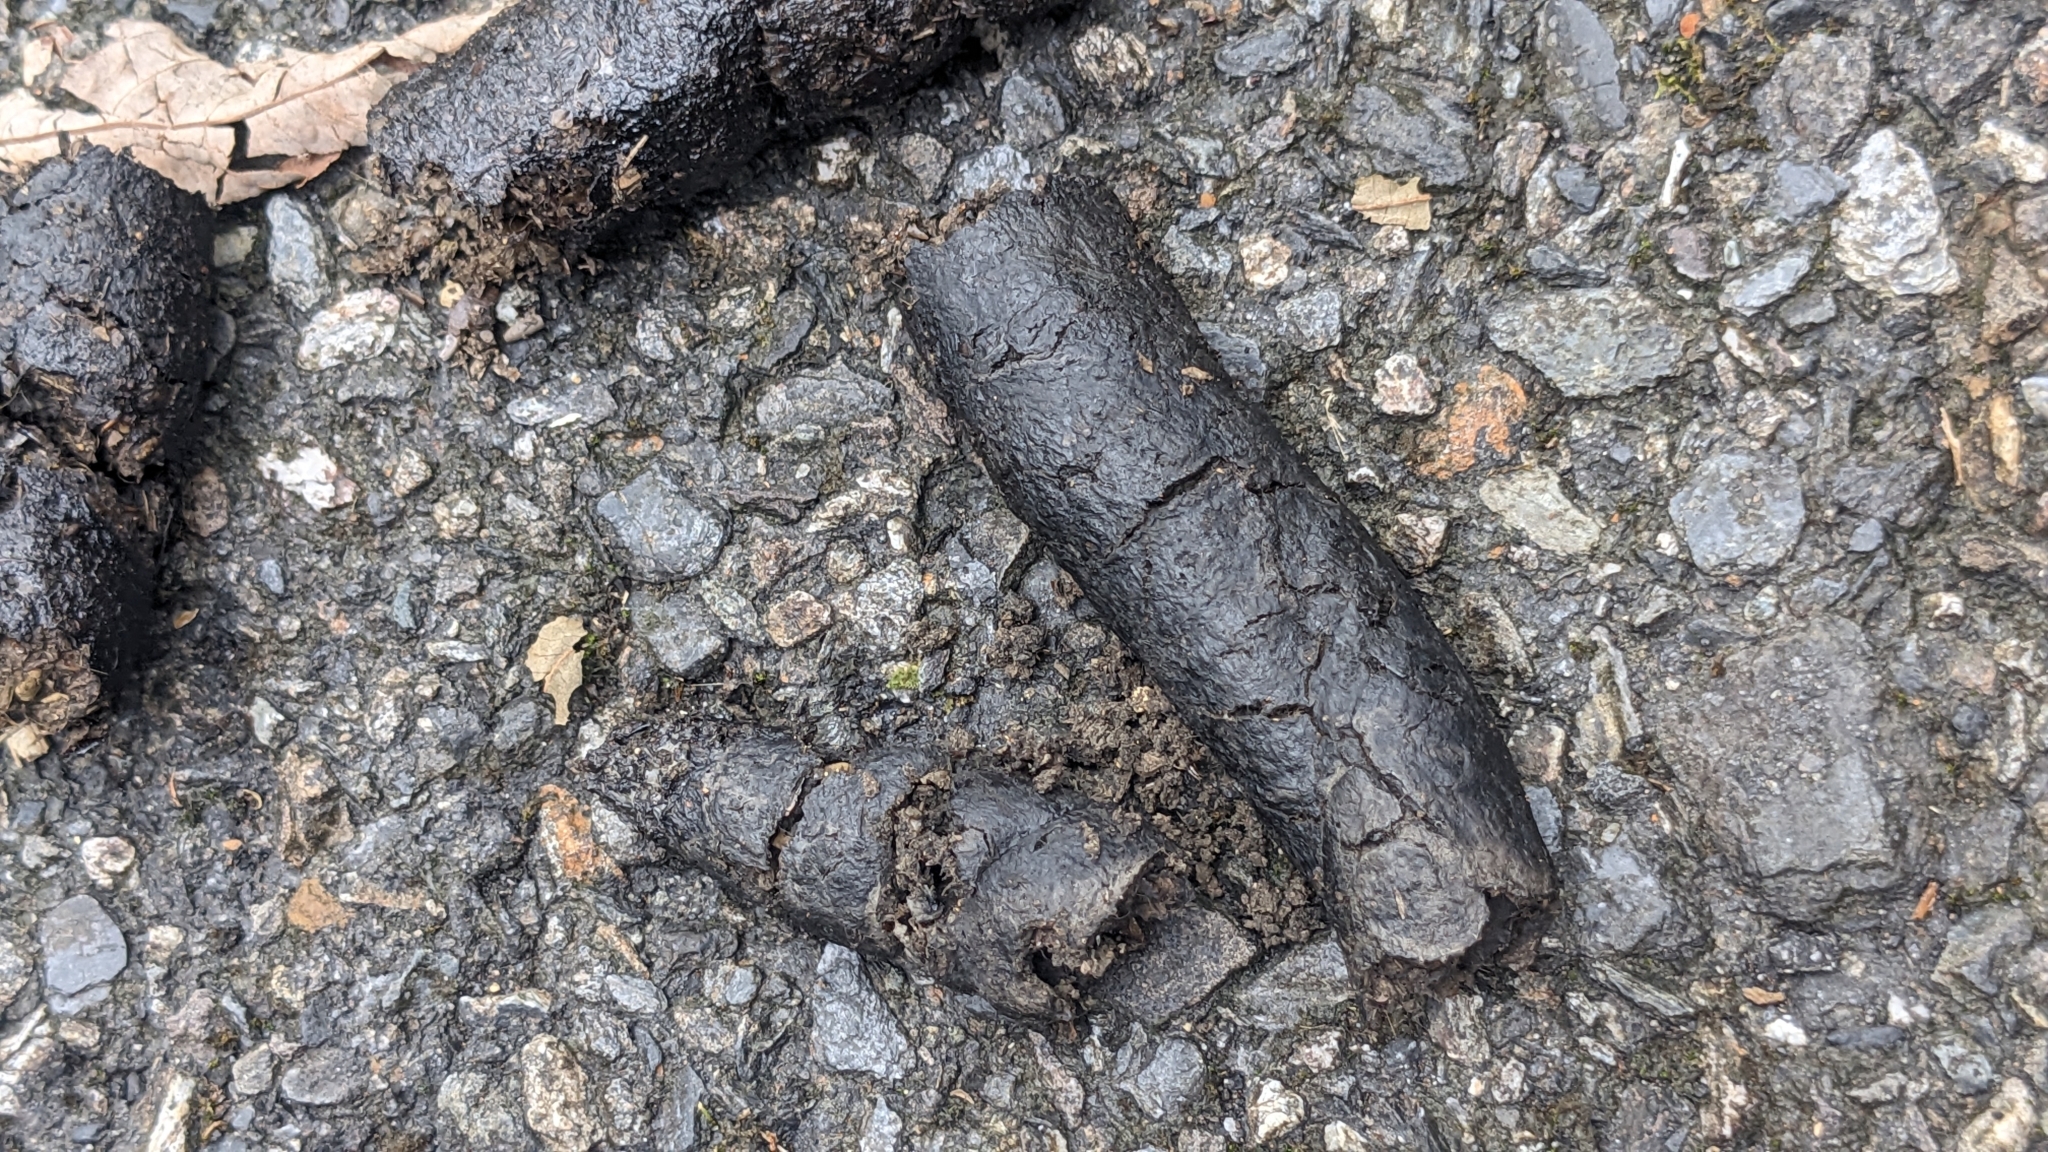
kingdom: Animalia
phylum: Chordata
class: Mammalia
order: Carnivora
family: Viverridae
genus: Viverricula
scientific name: Viverricula indica
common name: Small indian civet
